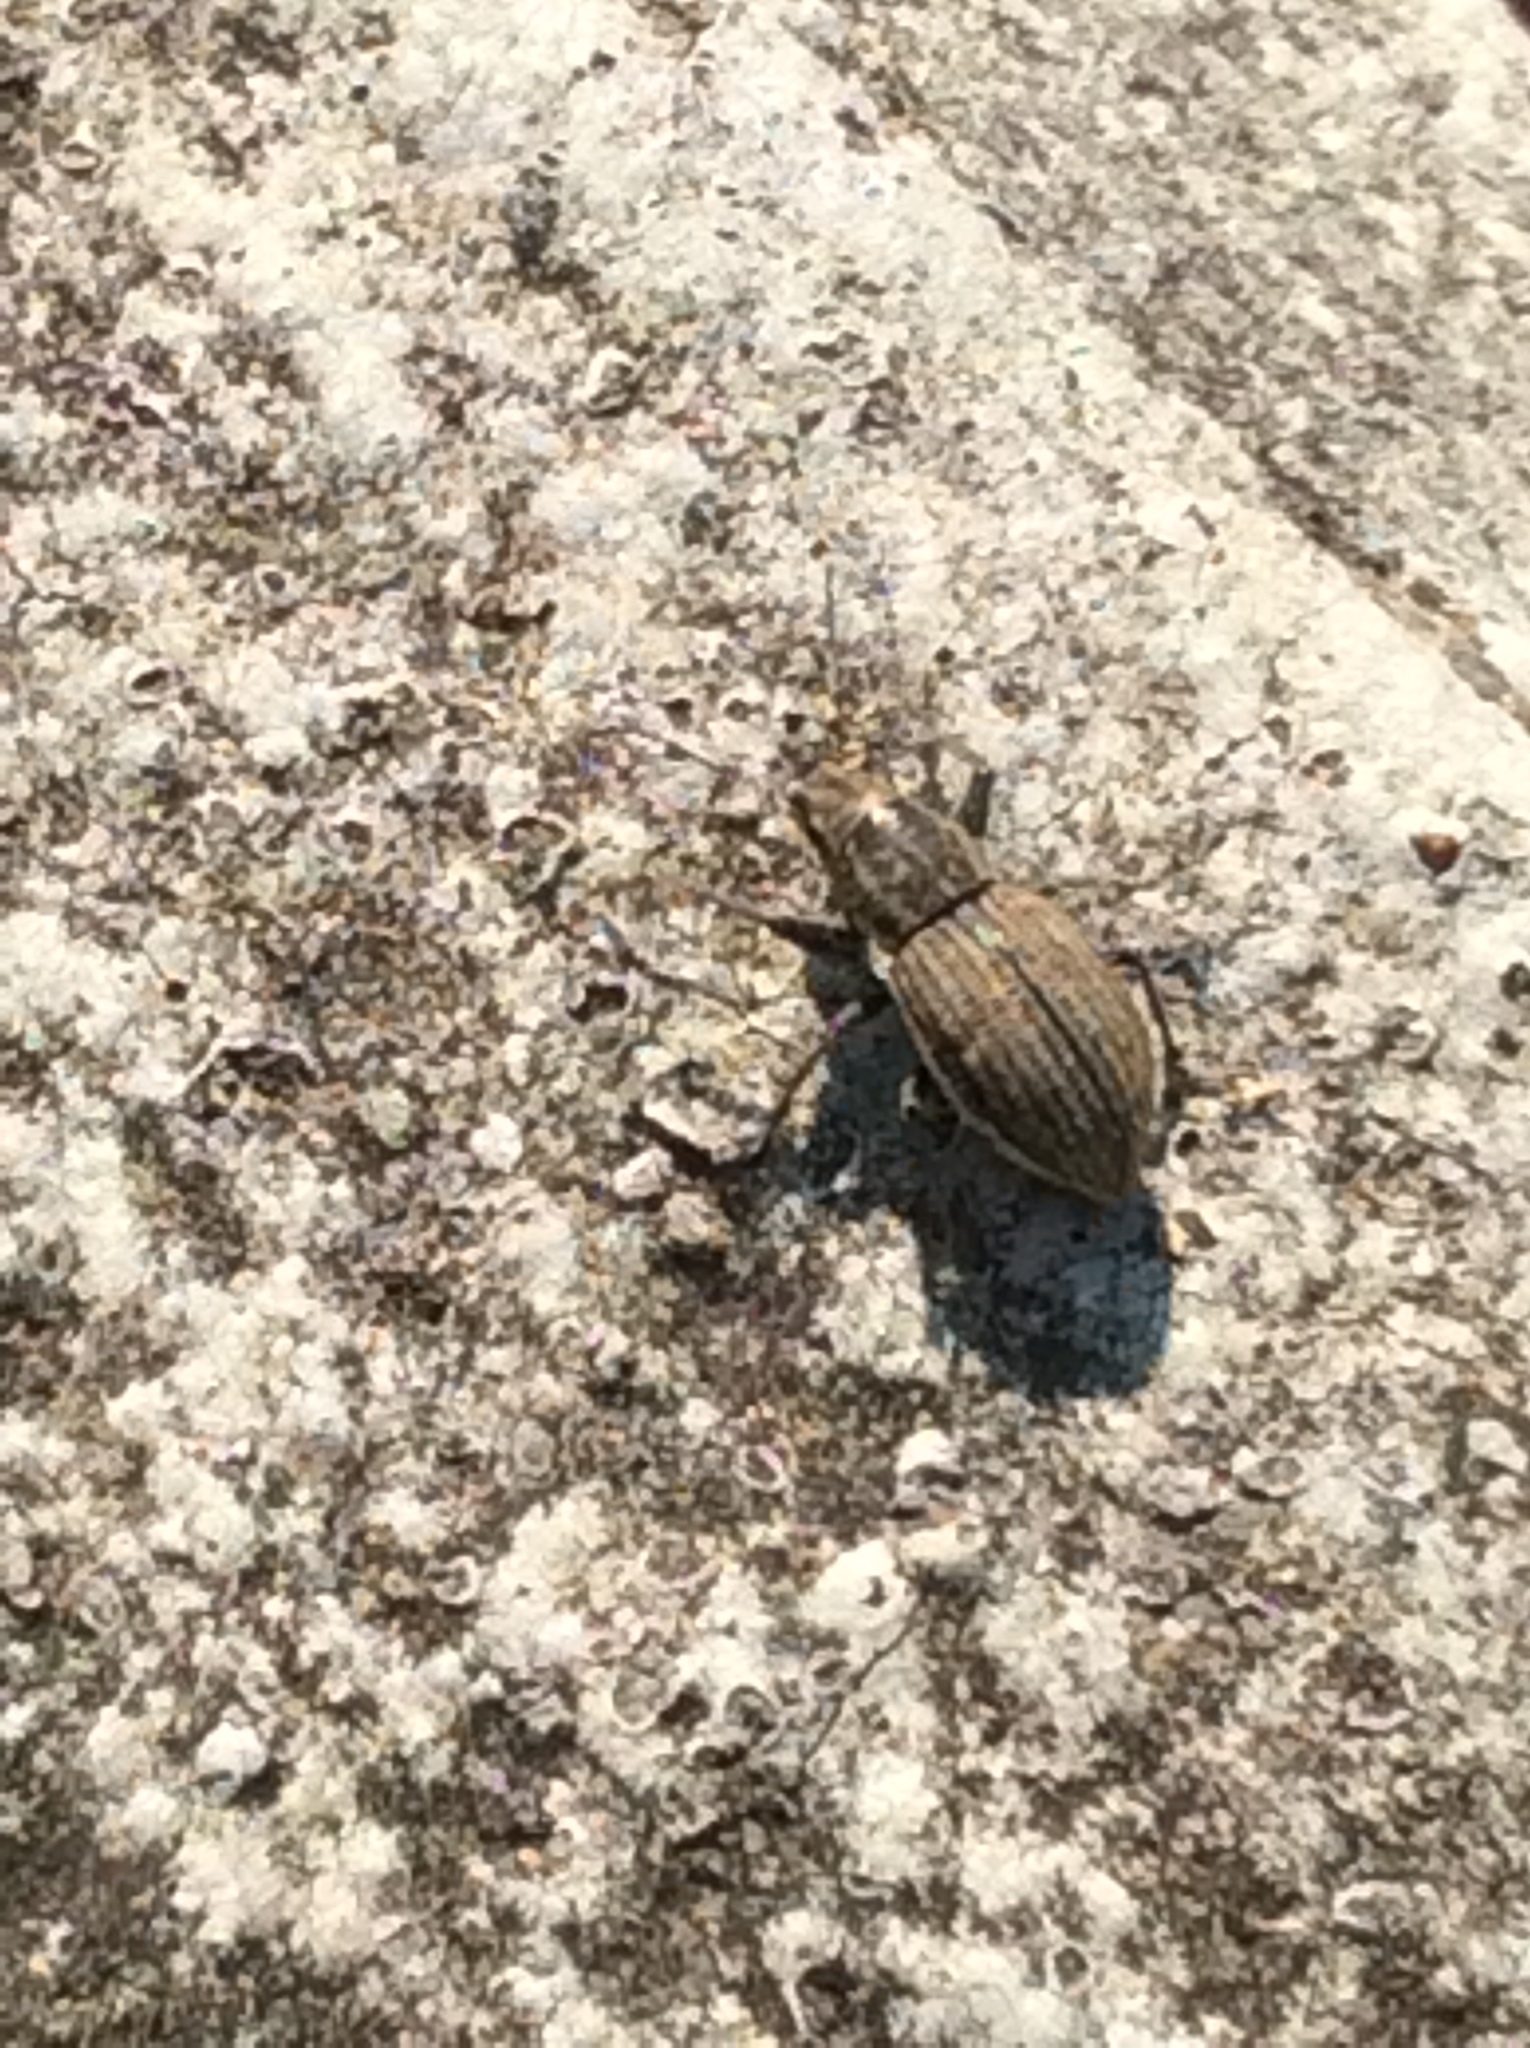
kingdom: Animalia
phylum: Arthropoda
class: Insecta
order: Coleoptera
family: Curculionidae
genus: Naupactus
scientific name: Naupactus leucoloma
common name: Whitefringed beetle
